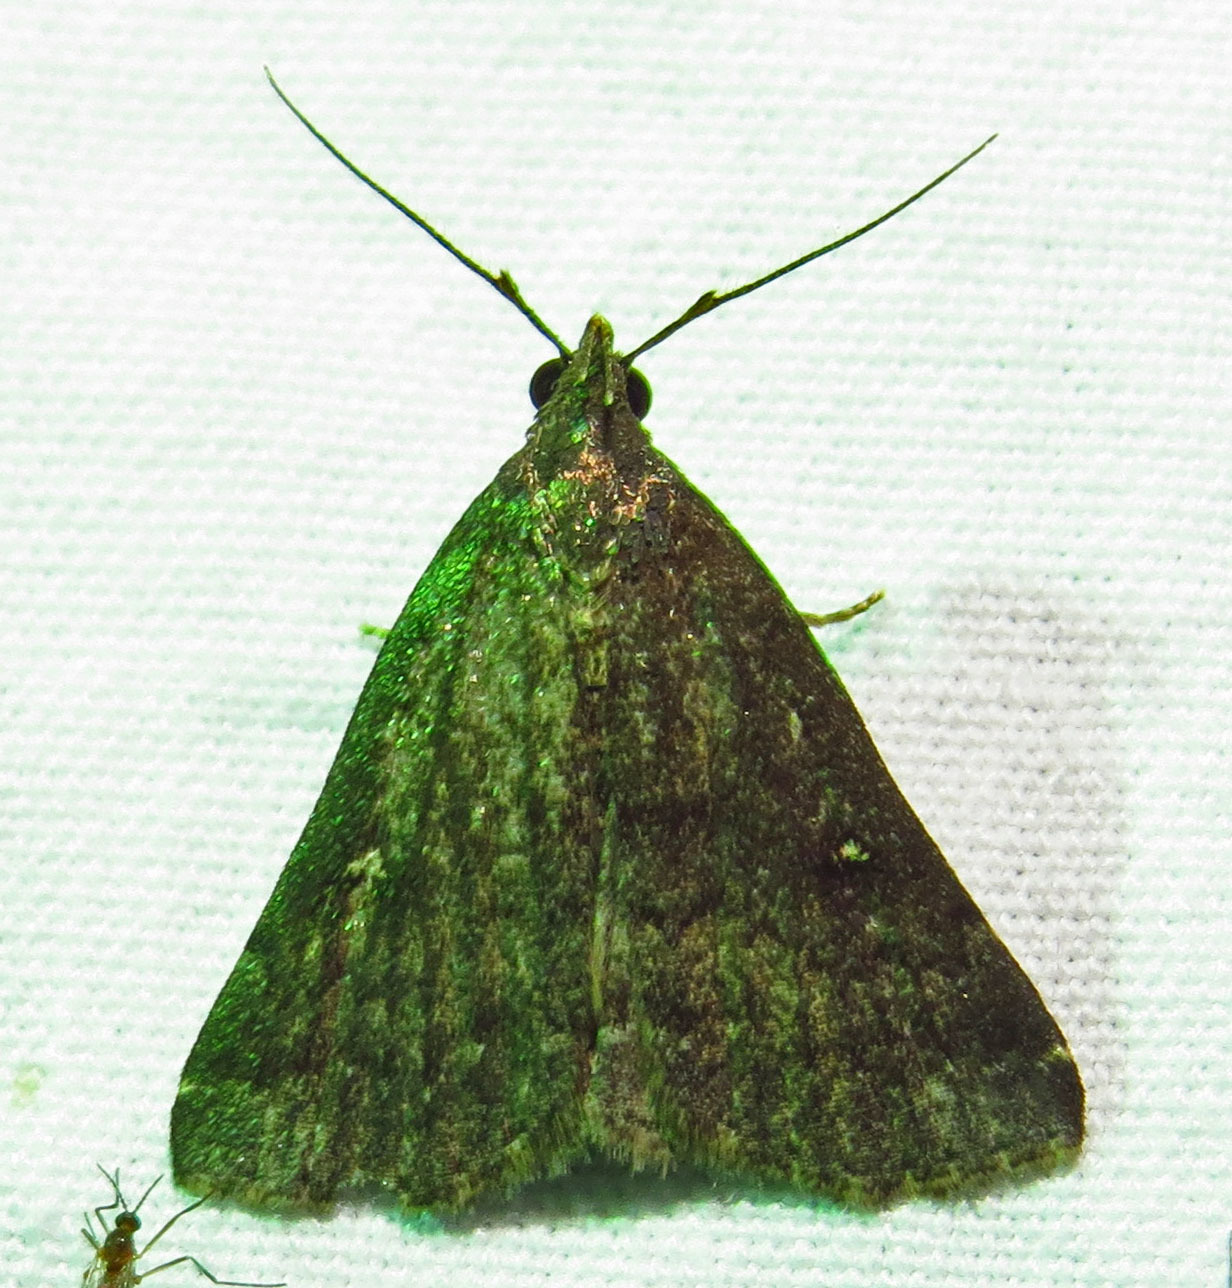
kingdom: Animalia
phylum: Arthropoda
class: Insecta
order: Lepidoptera
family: Erebidae
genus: Tetanolita
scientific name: Tetanolita mynesalis
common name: Smoky tetanolita moth
